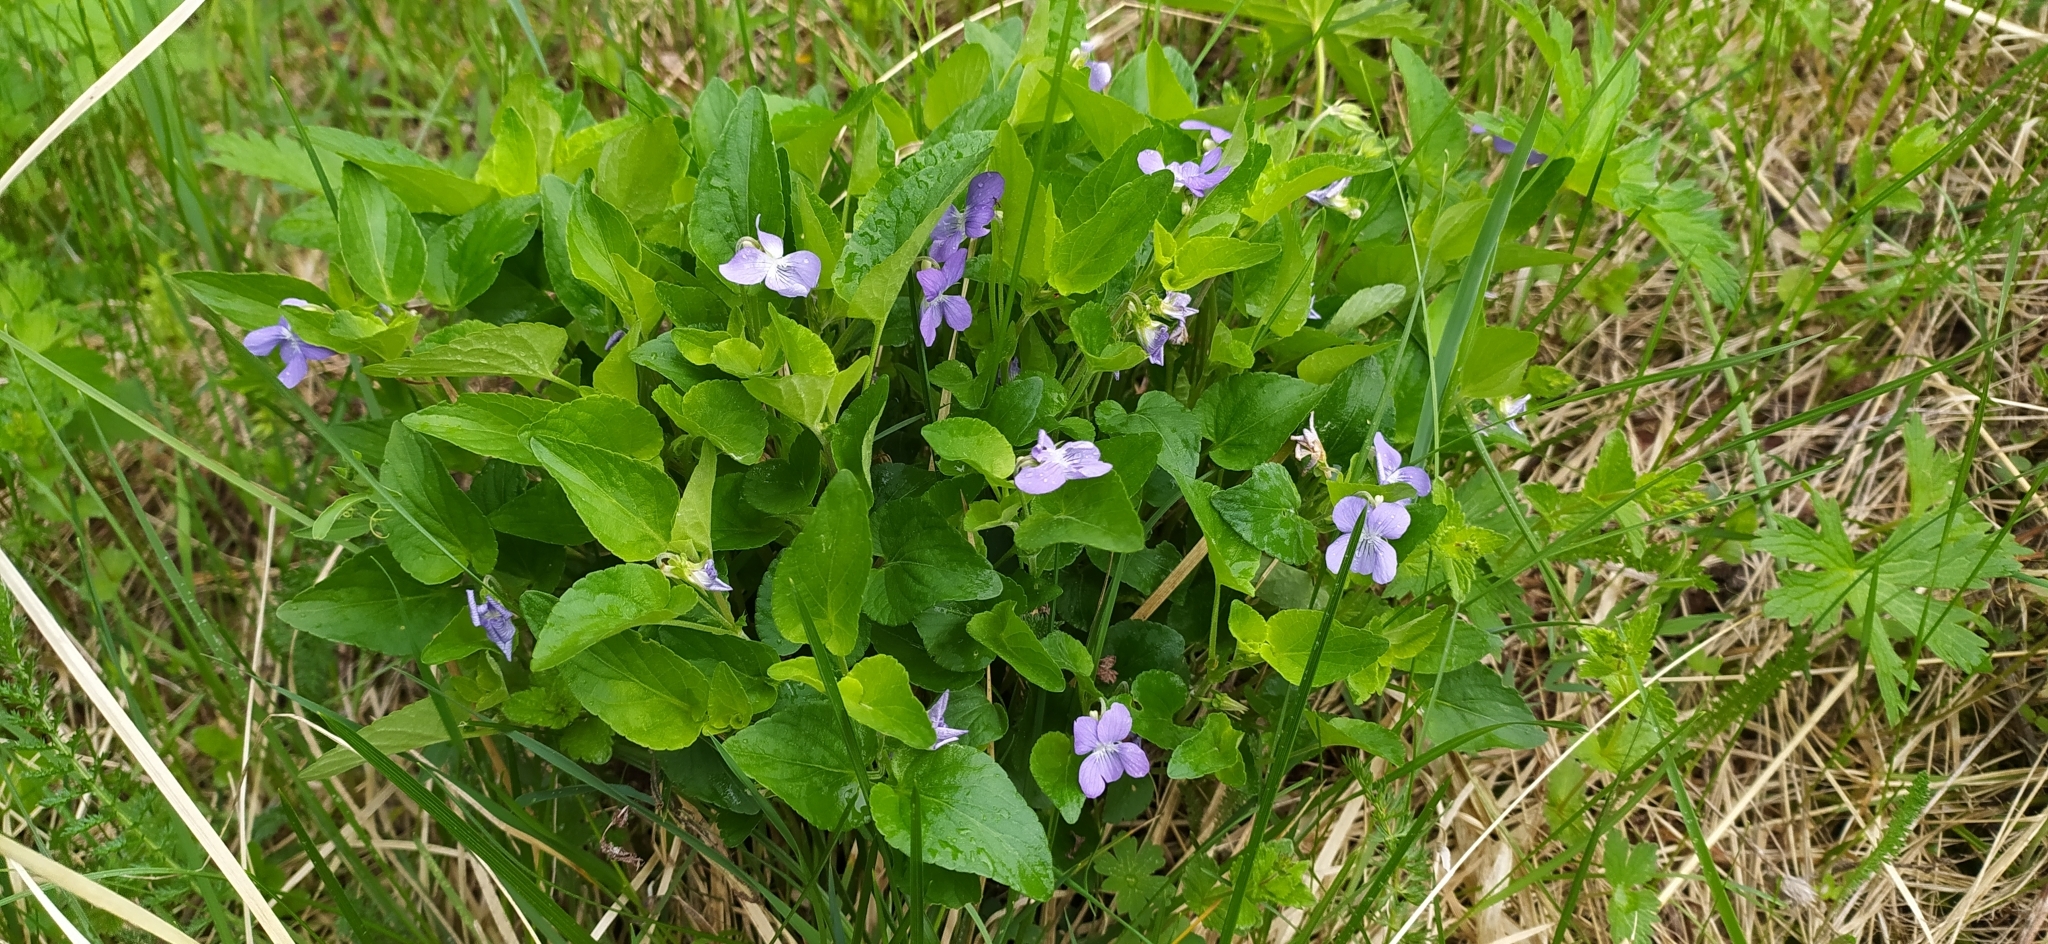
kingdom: Plantae
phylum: Tracheophyta
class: Magnoliopsida
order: Malpighiales
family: Violaceae
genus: Viola
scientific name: Viola canina
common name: Heath dog-violet
